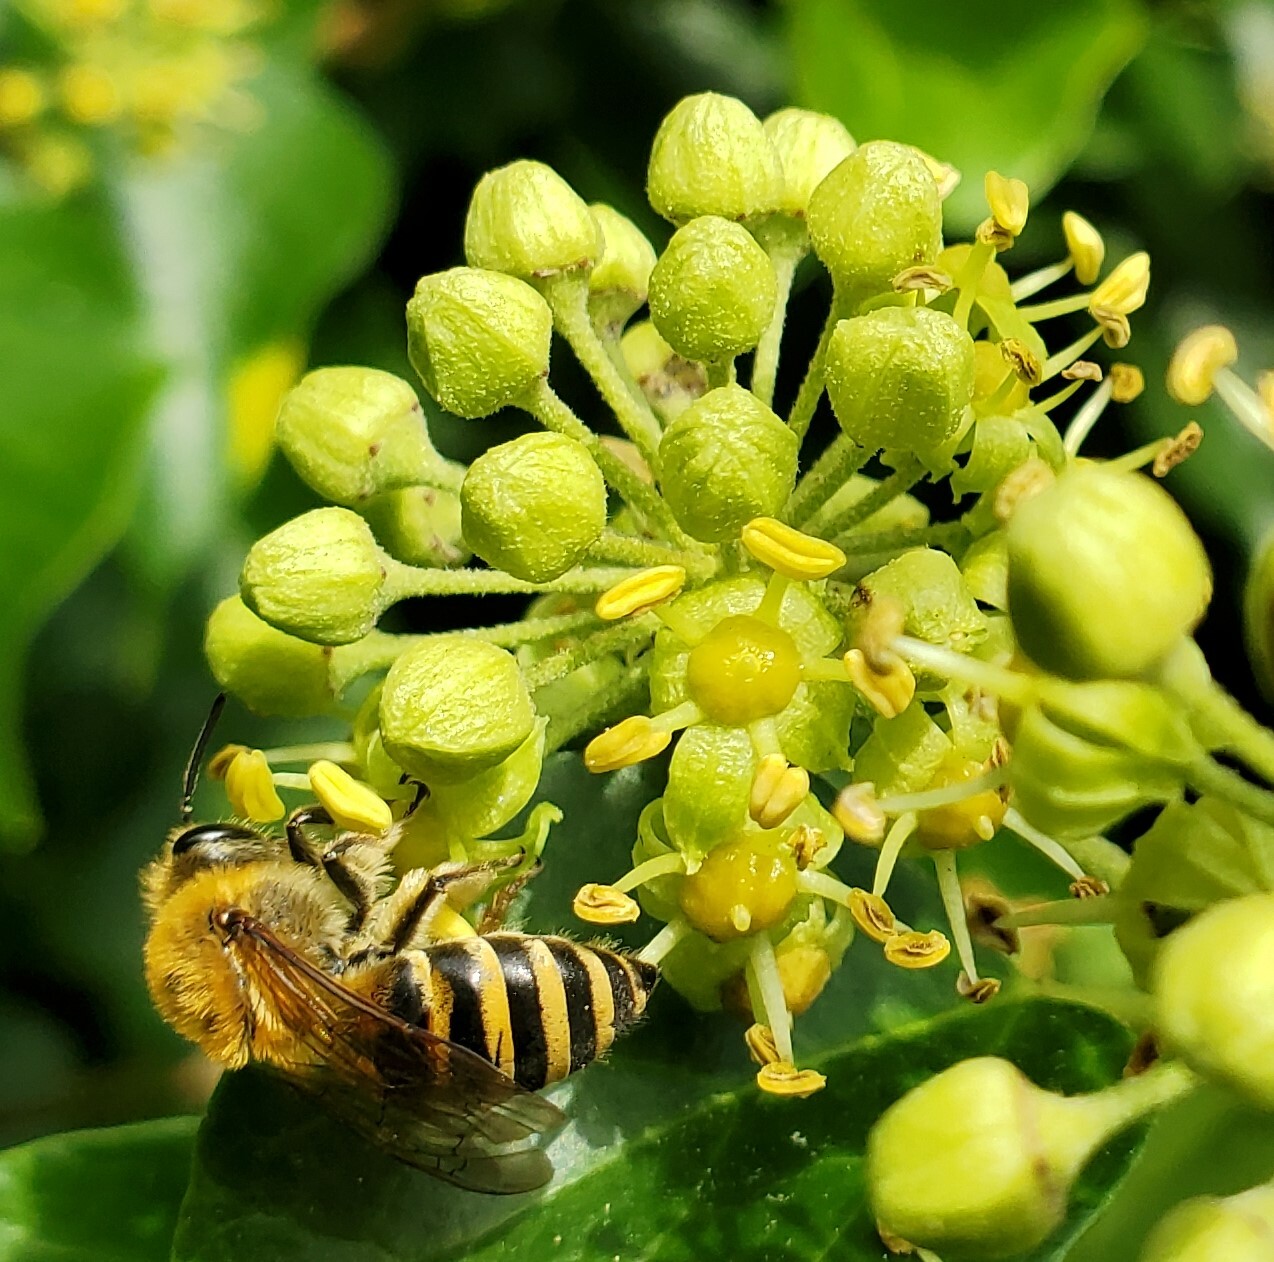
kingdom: Animalia
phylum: Arthropoda
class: Insecta
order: Hymenoptera
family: Colletidae
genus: Colletes
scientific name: Colletes hederae
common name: Ivy bee
